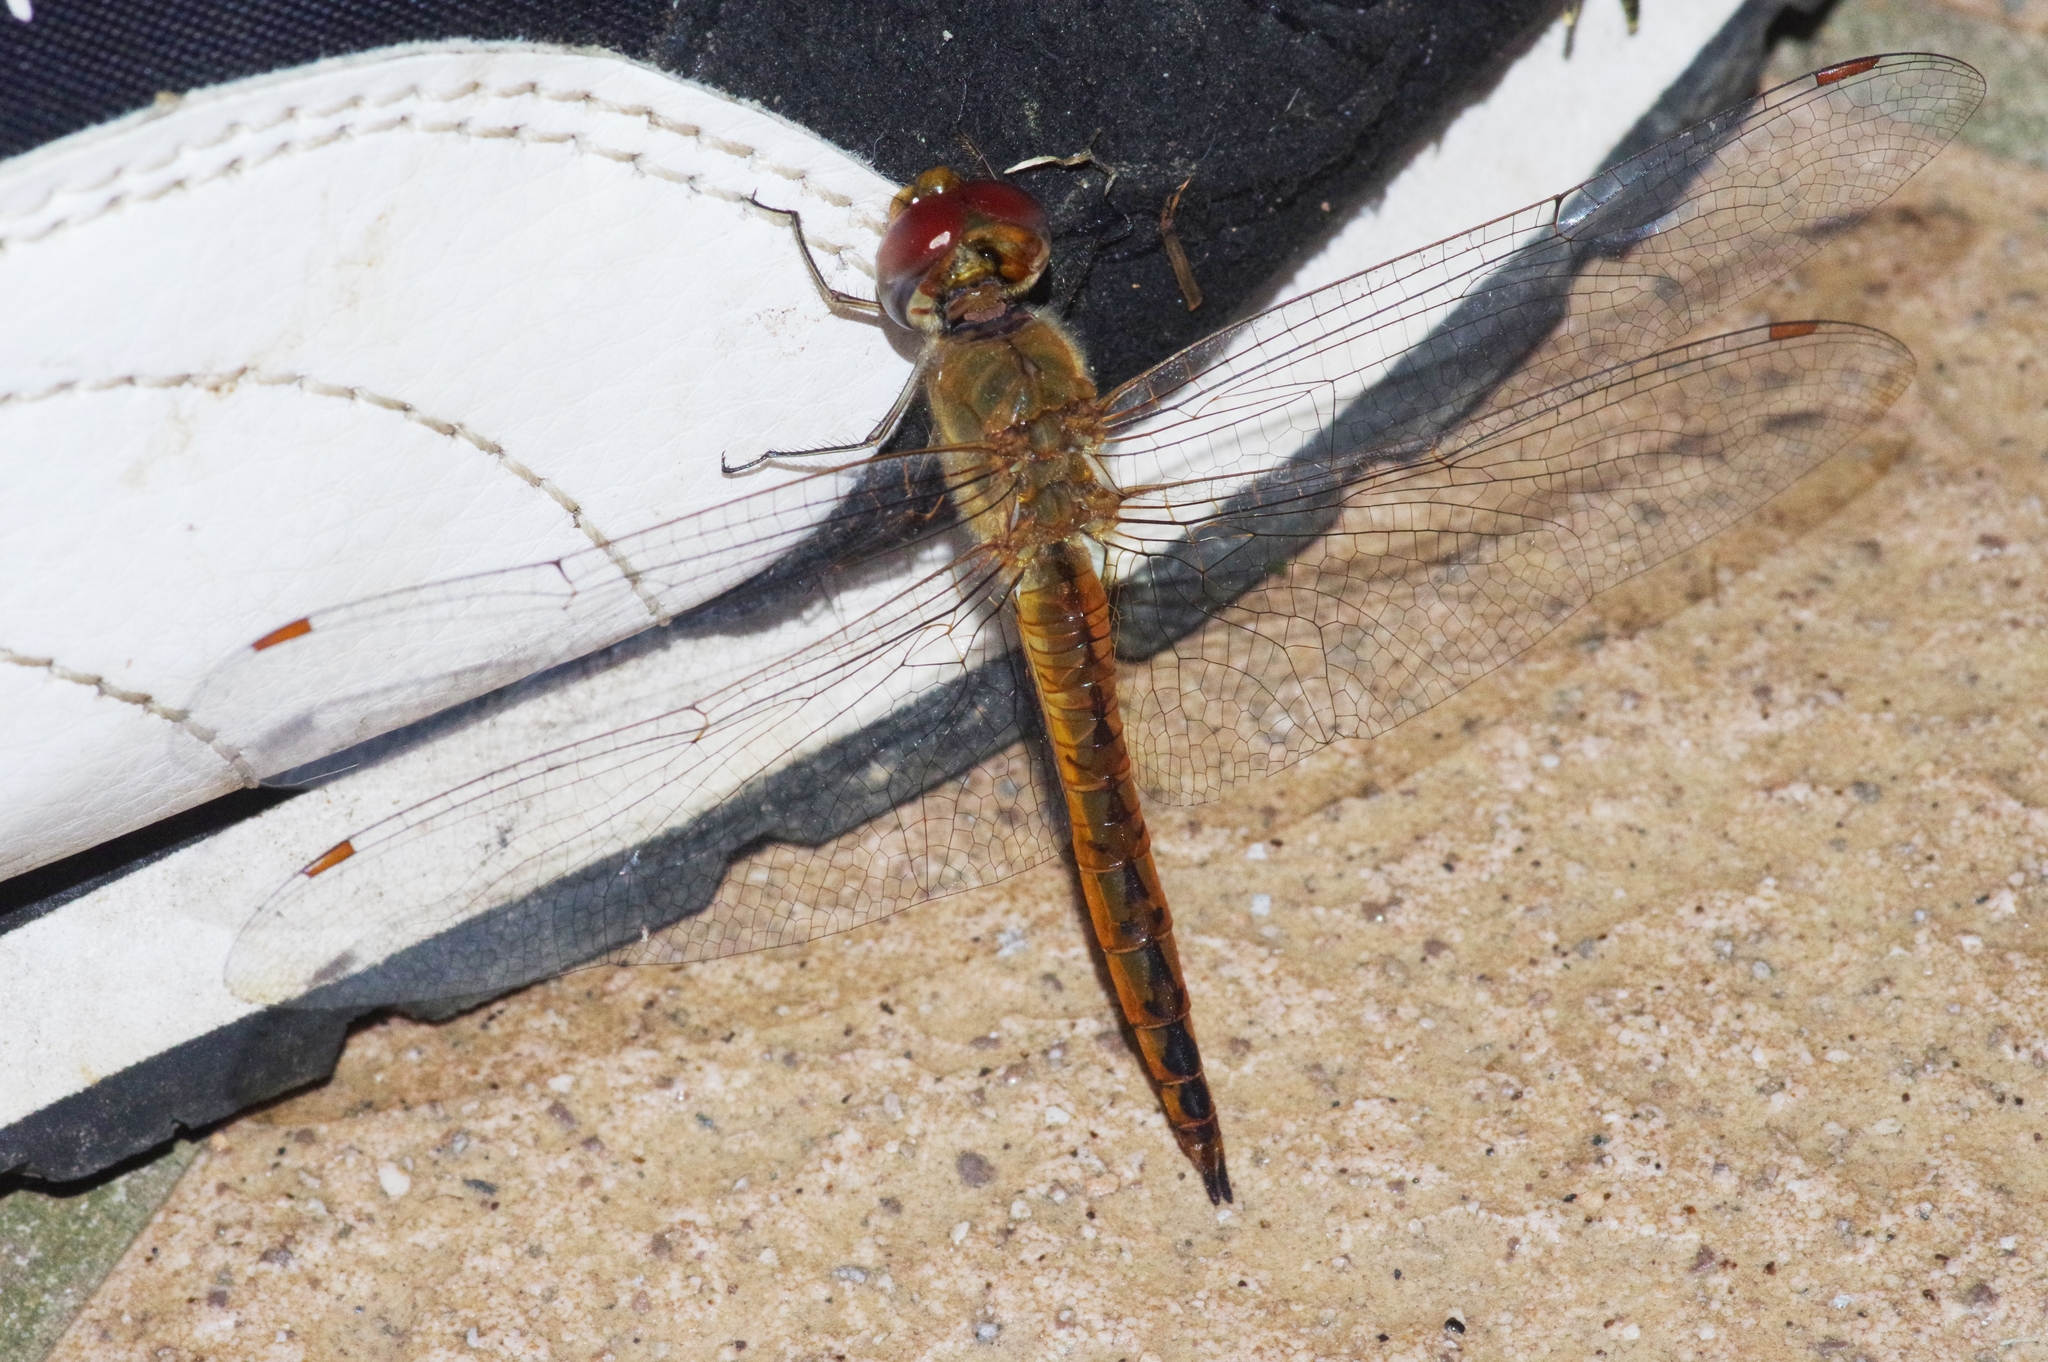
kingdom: Animalia
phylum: Arthropoda
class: Insecta
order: Odonata
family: Libellulidae
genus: Pantala
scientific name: Pantala flavescens
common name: Wandering glider
